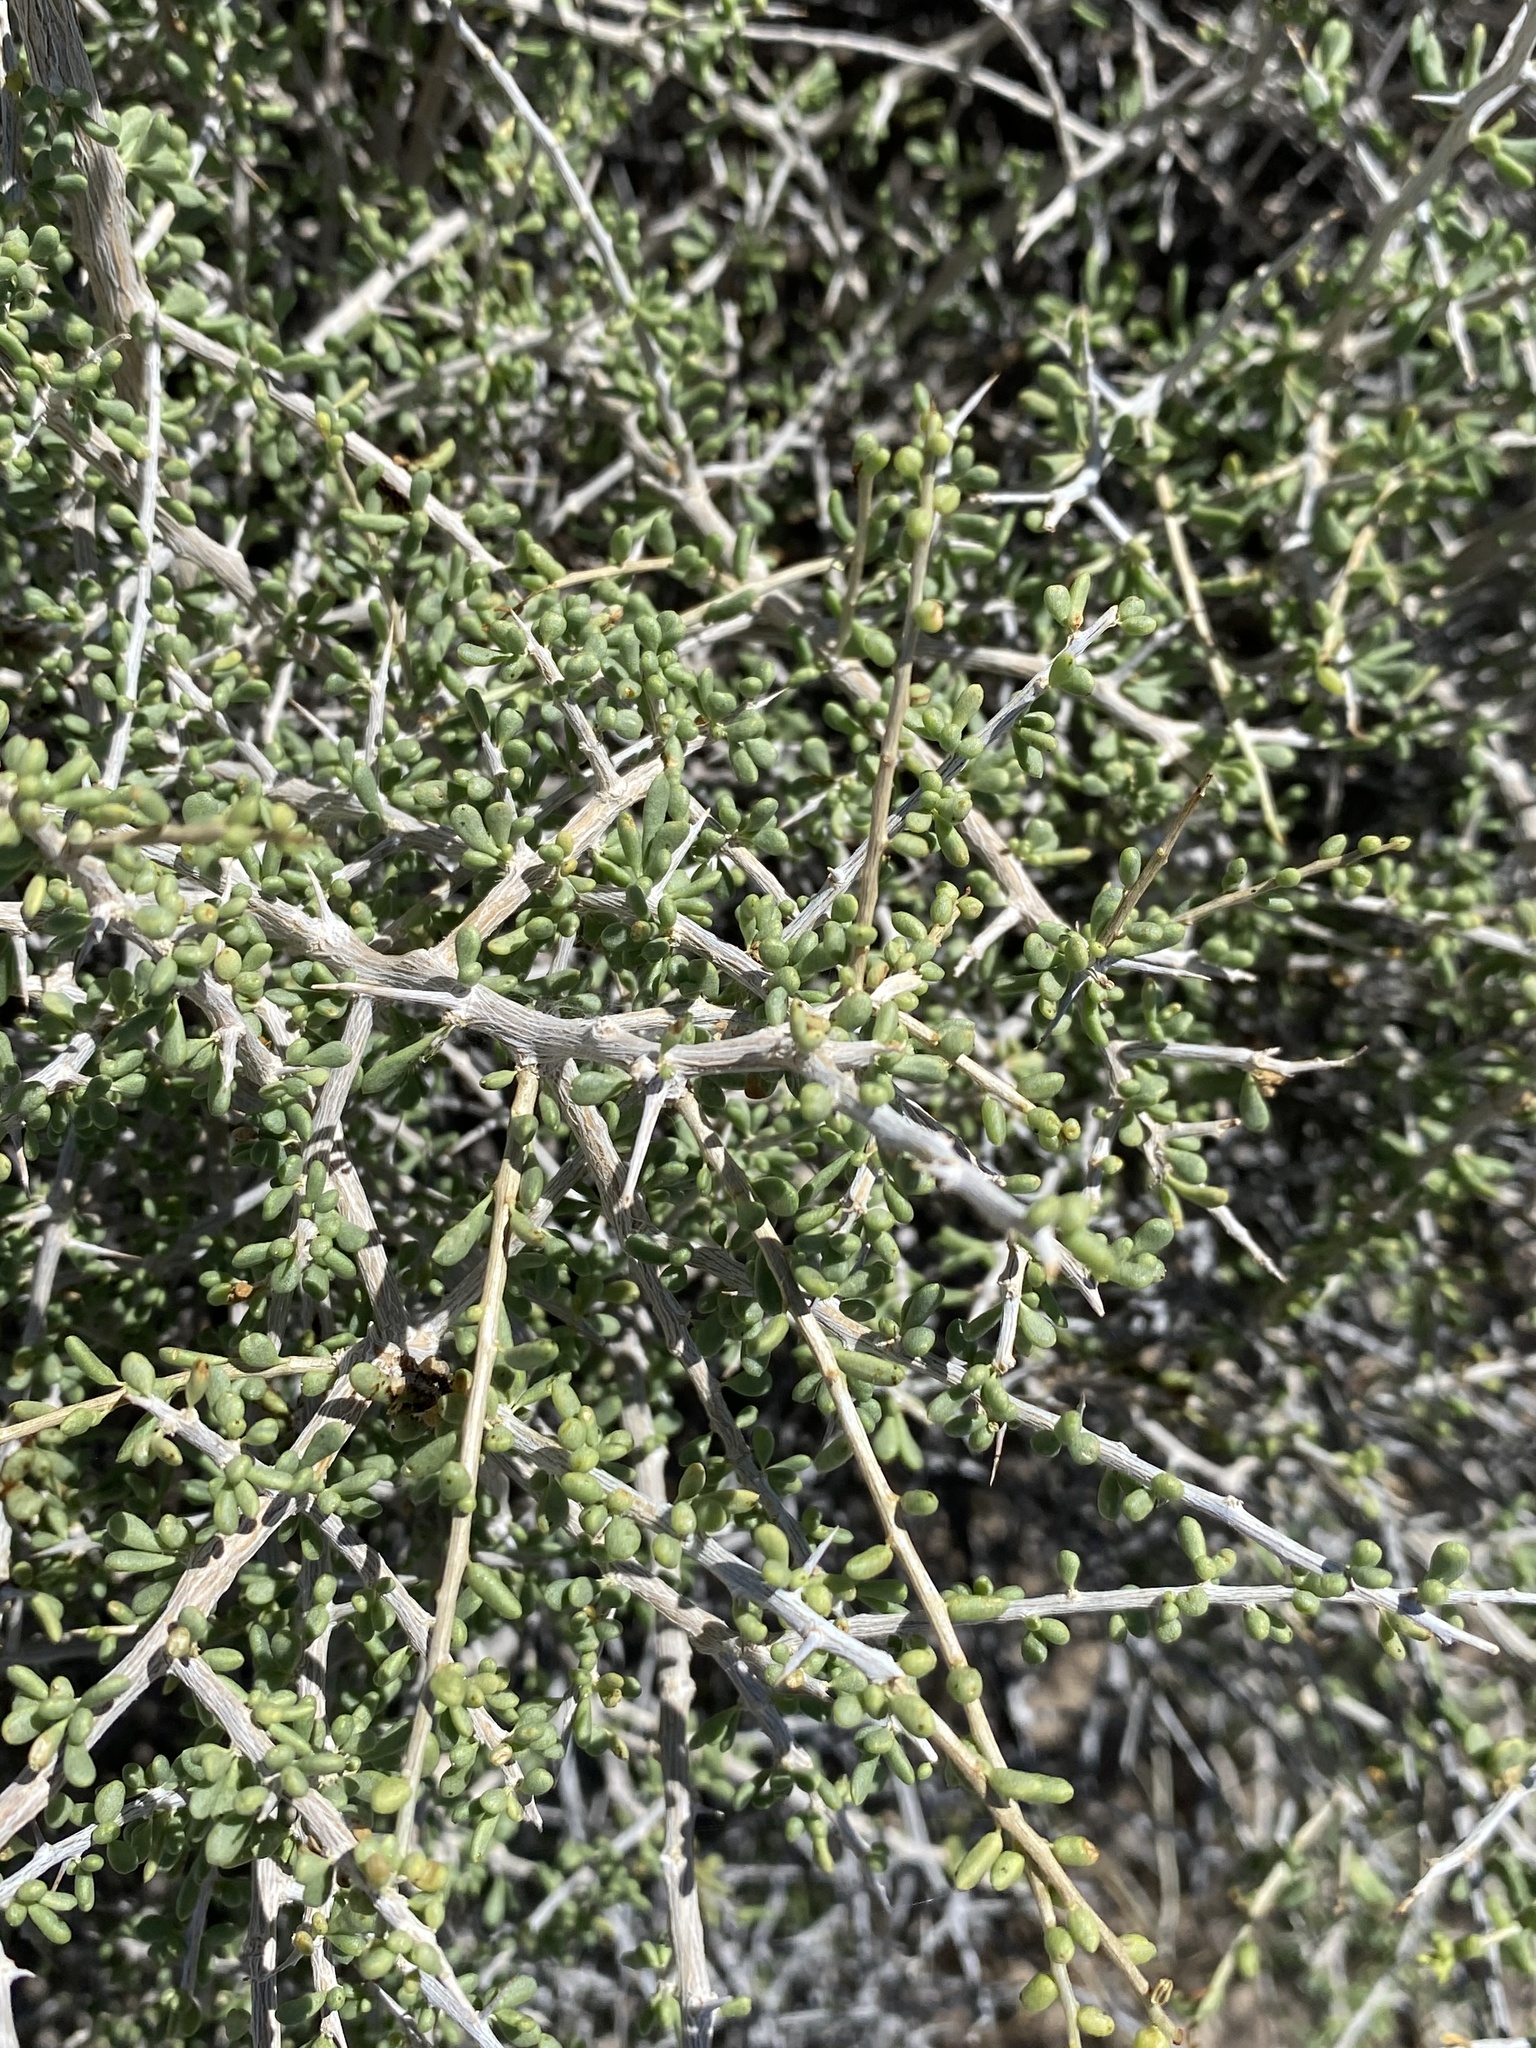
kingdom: Plantae
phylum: Tracheophyta
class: Magnoliopsida
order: Solanales
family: Solanaceae
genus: Lycium
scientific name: Lycium andersonii
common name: Water-jacket
